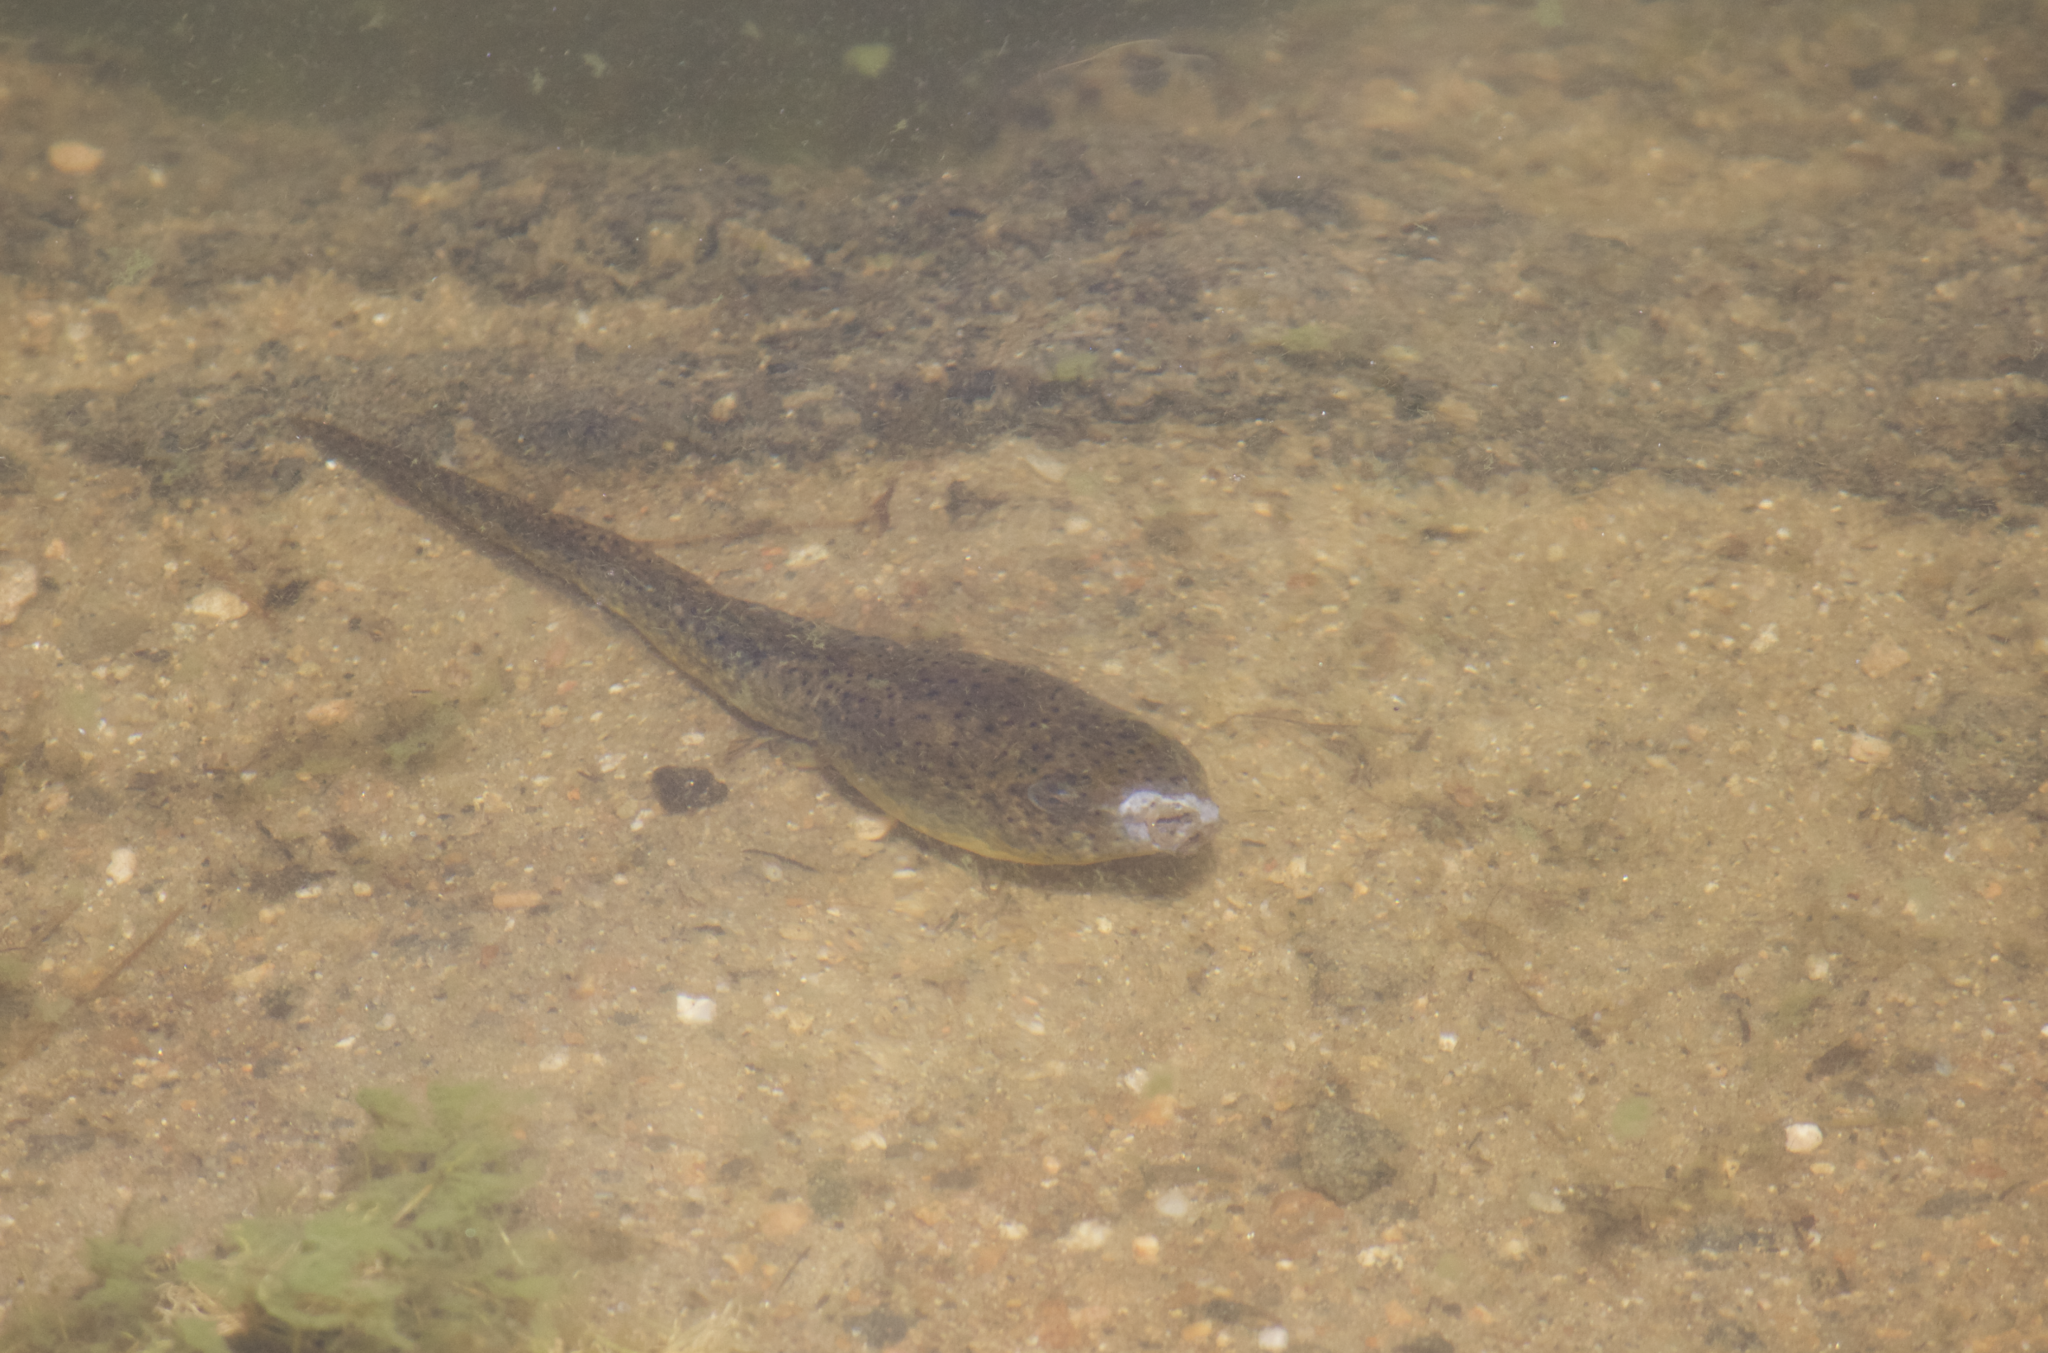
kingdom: Animalia
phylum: Chordata
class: Amphibia
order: Anura
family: Ranidae
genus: Lithobates
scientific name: Lithobates catesbeianus
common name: American bullfrog
